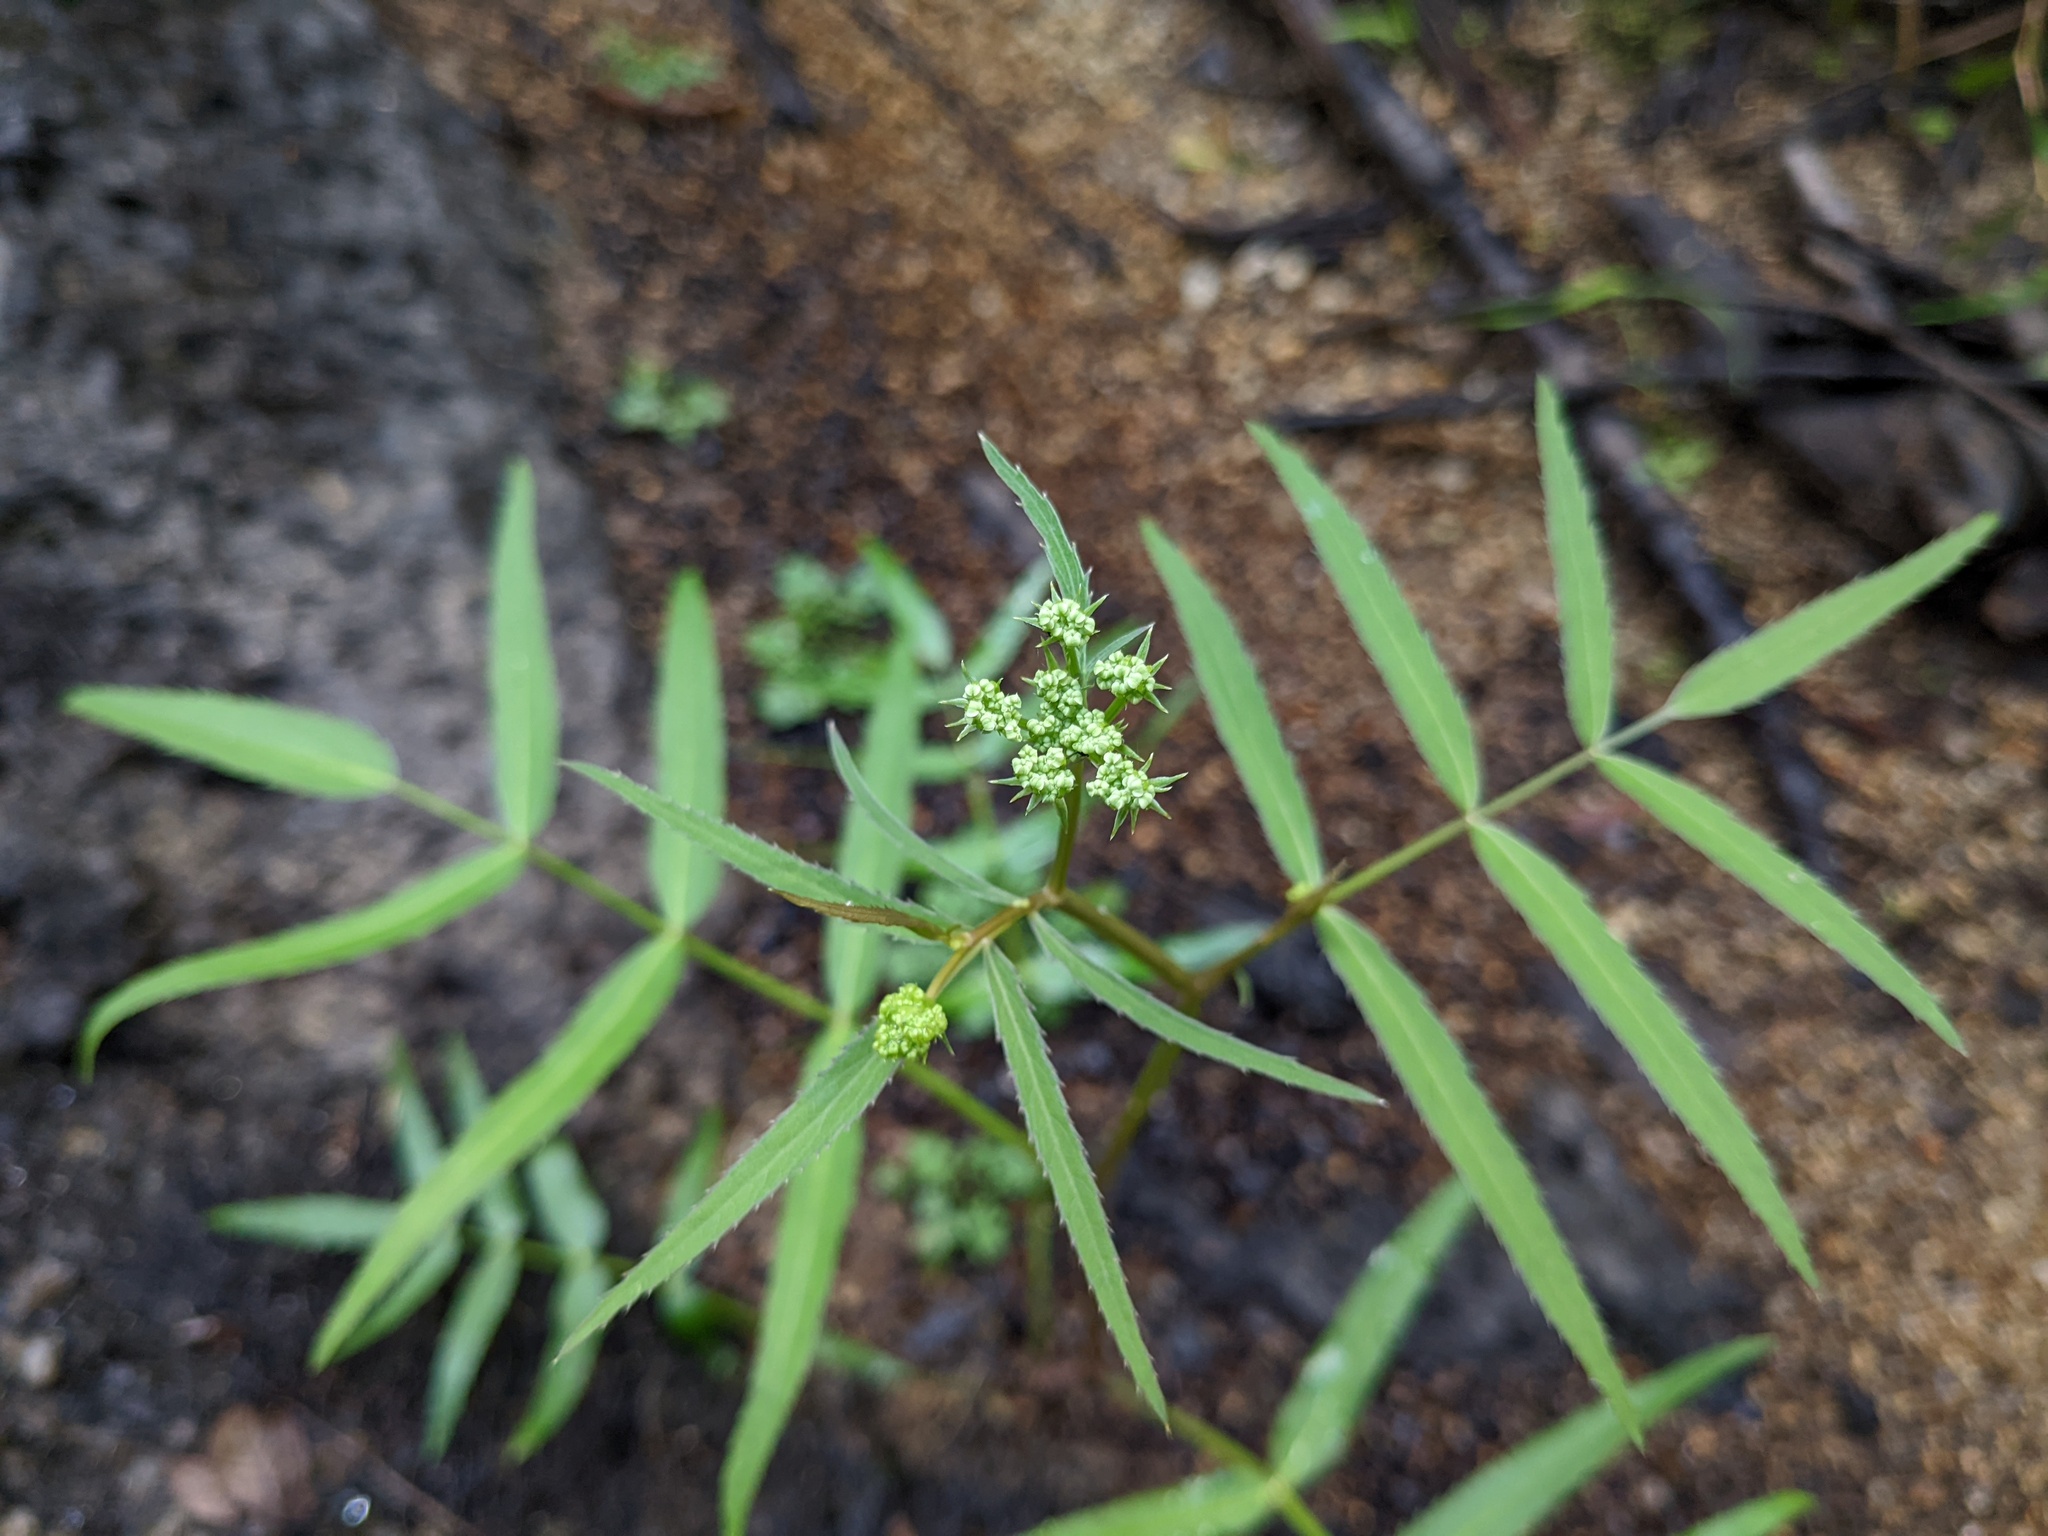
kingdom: Plantae
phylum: Tracheophyta
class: Magnoliopsida
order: Apiales
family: Apiaceae
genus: Sium
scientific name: Sium suave
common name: Hemlock water-parsnip
